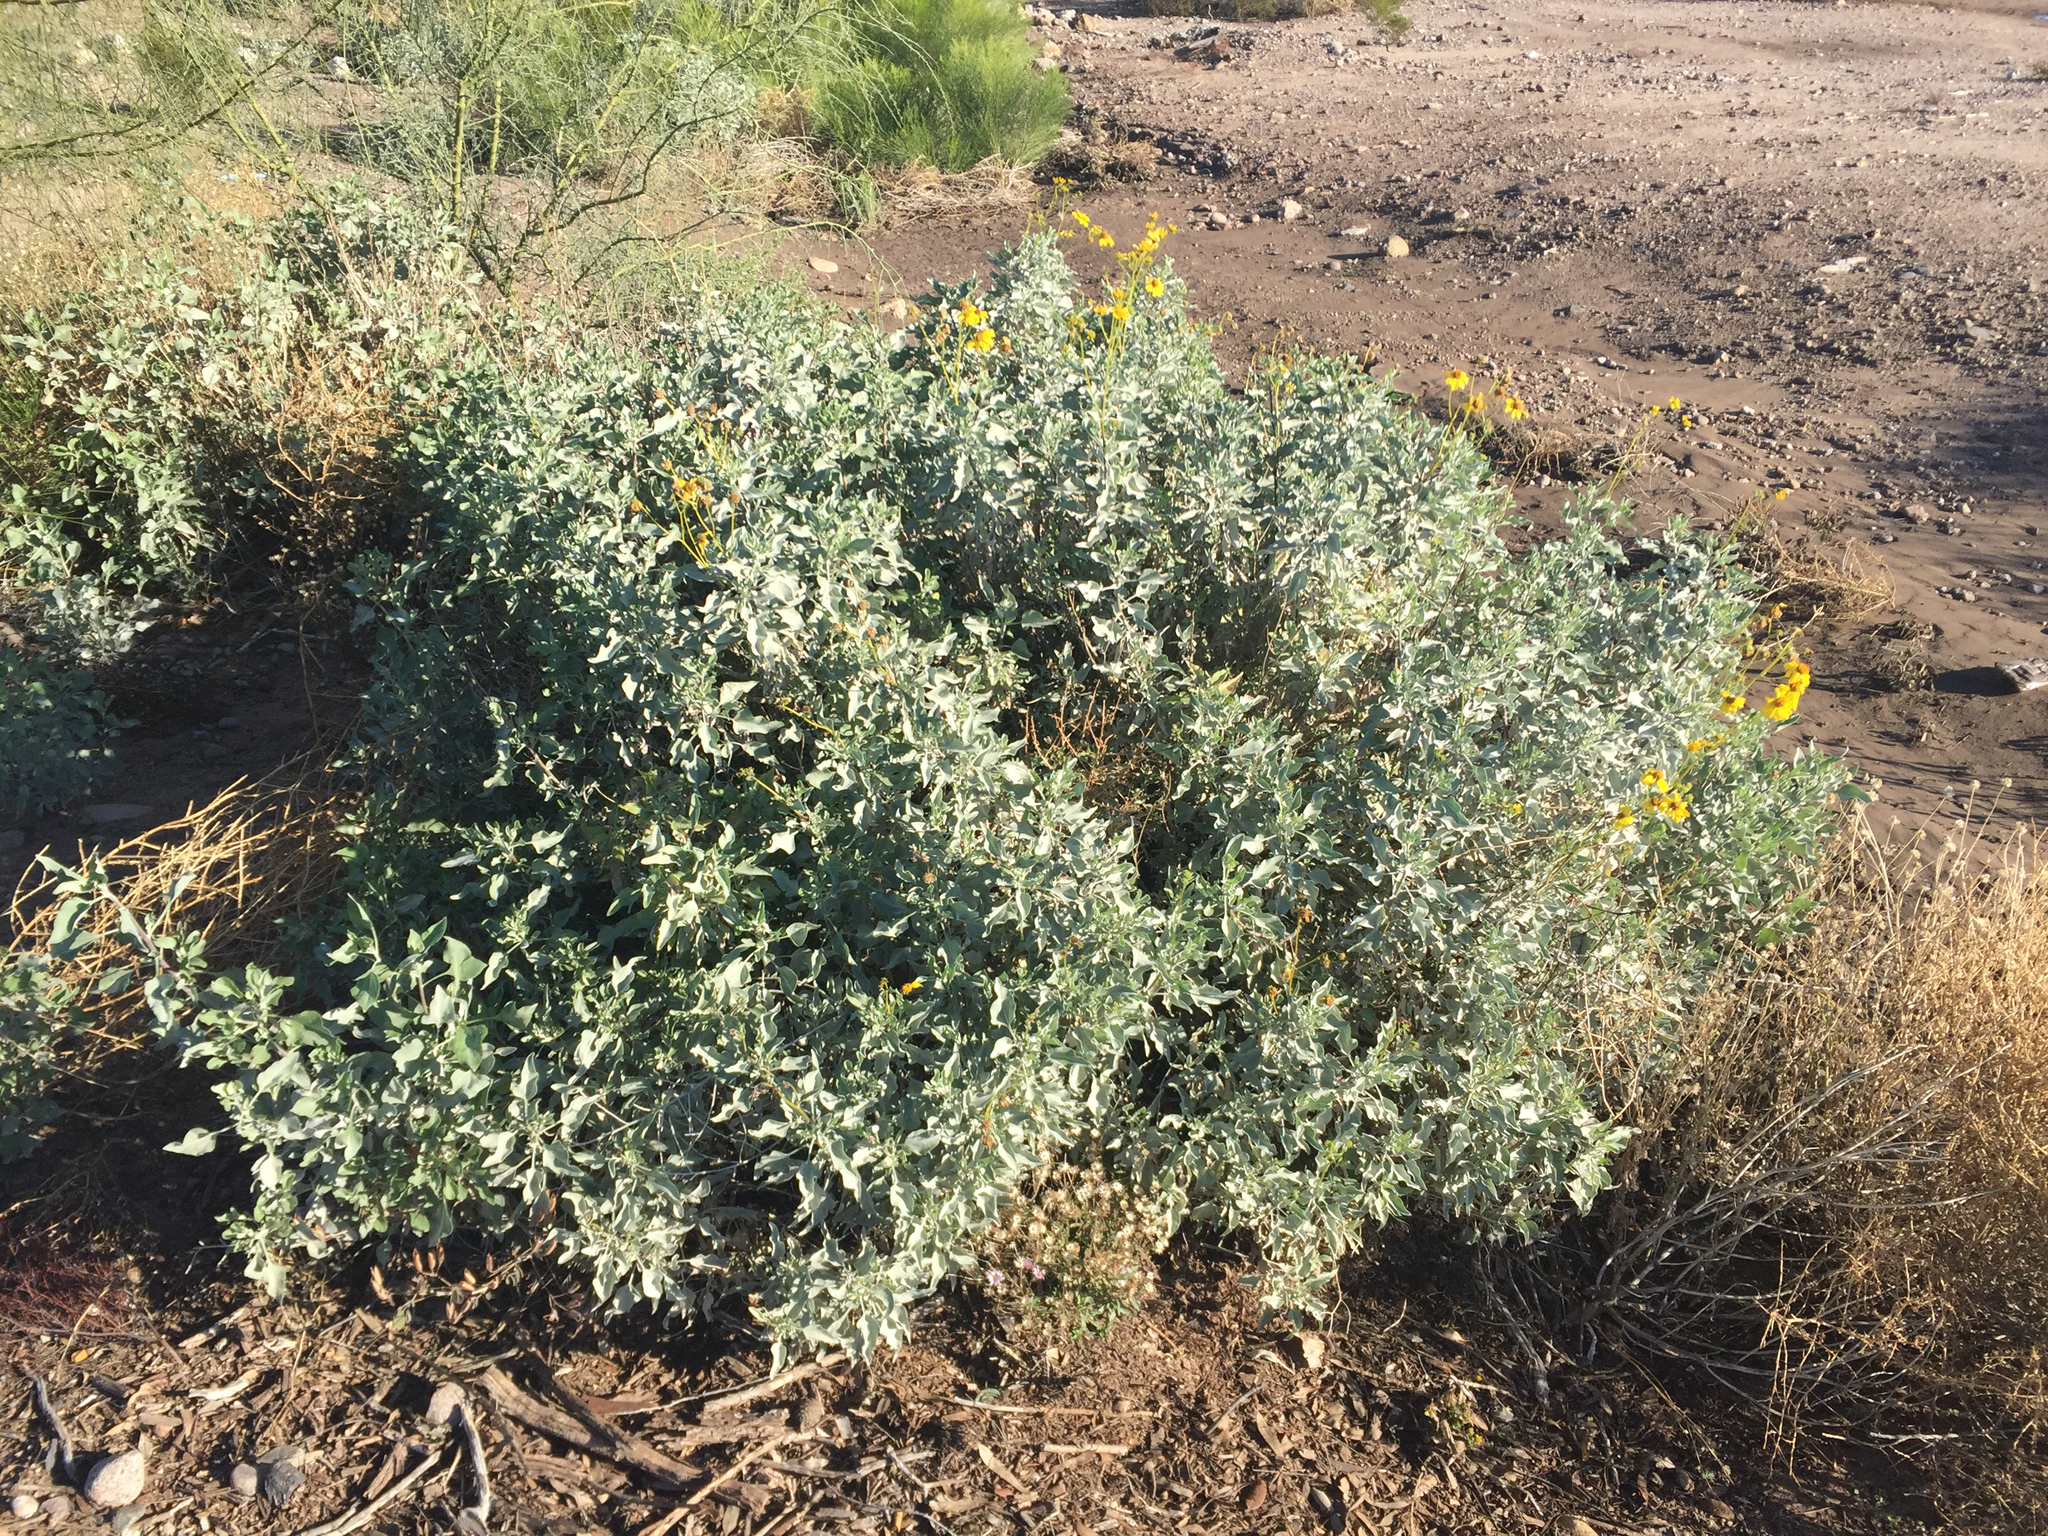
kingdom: Plantae
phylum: Tracheophyta
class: Magnoliopsida
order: Asterales
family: Asteraceae
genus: Encelia
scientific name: Encelia farinosa
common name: Brittlebush
